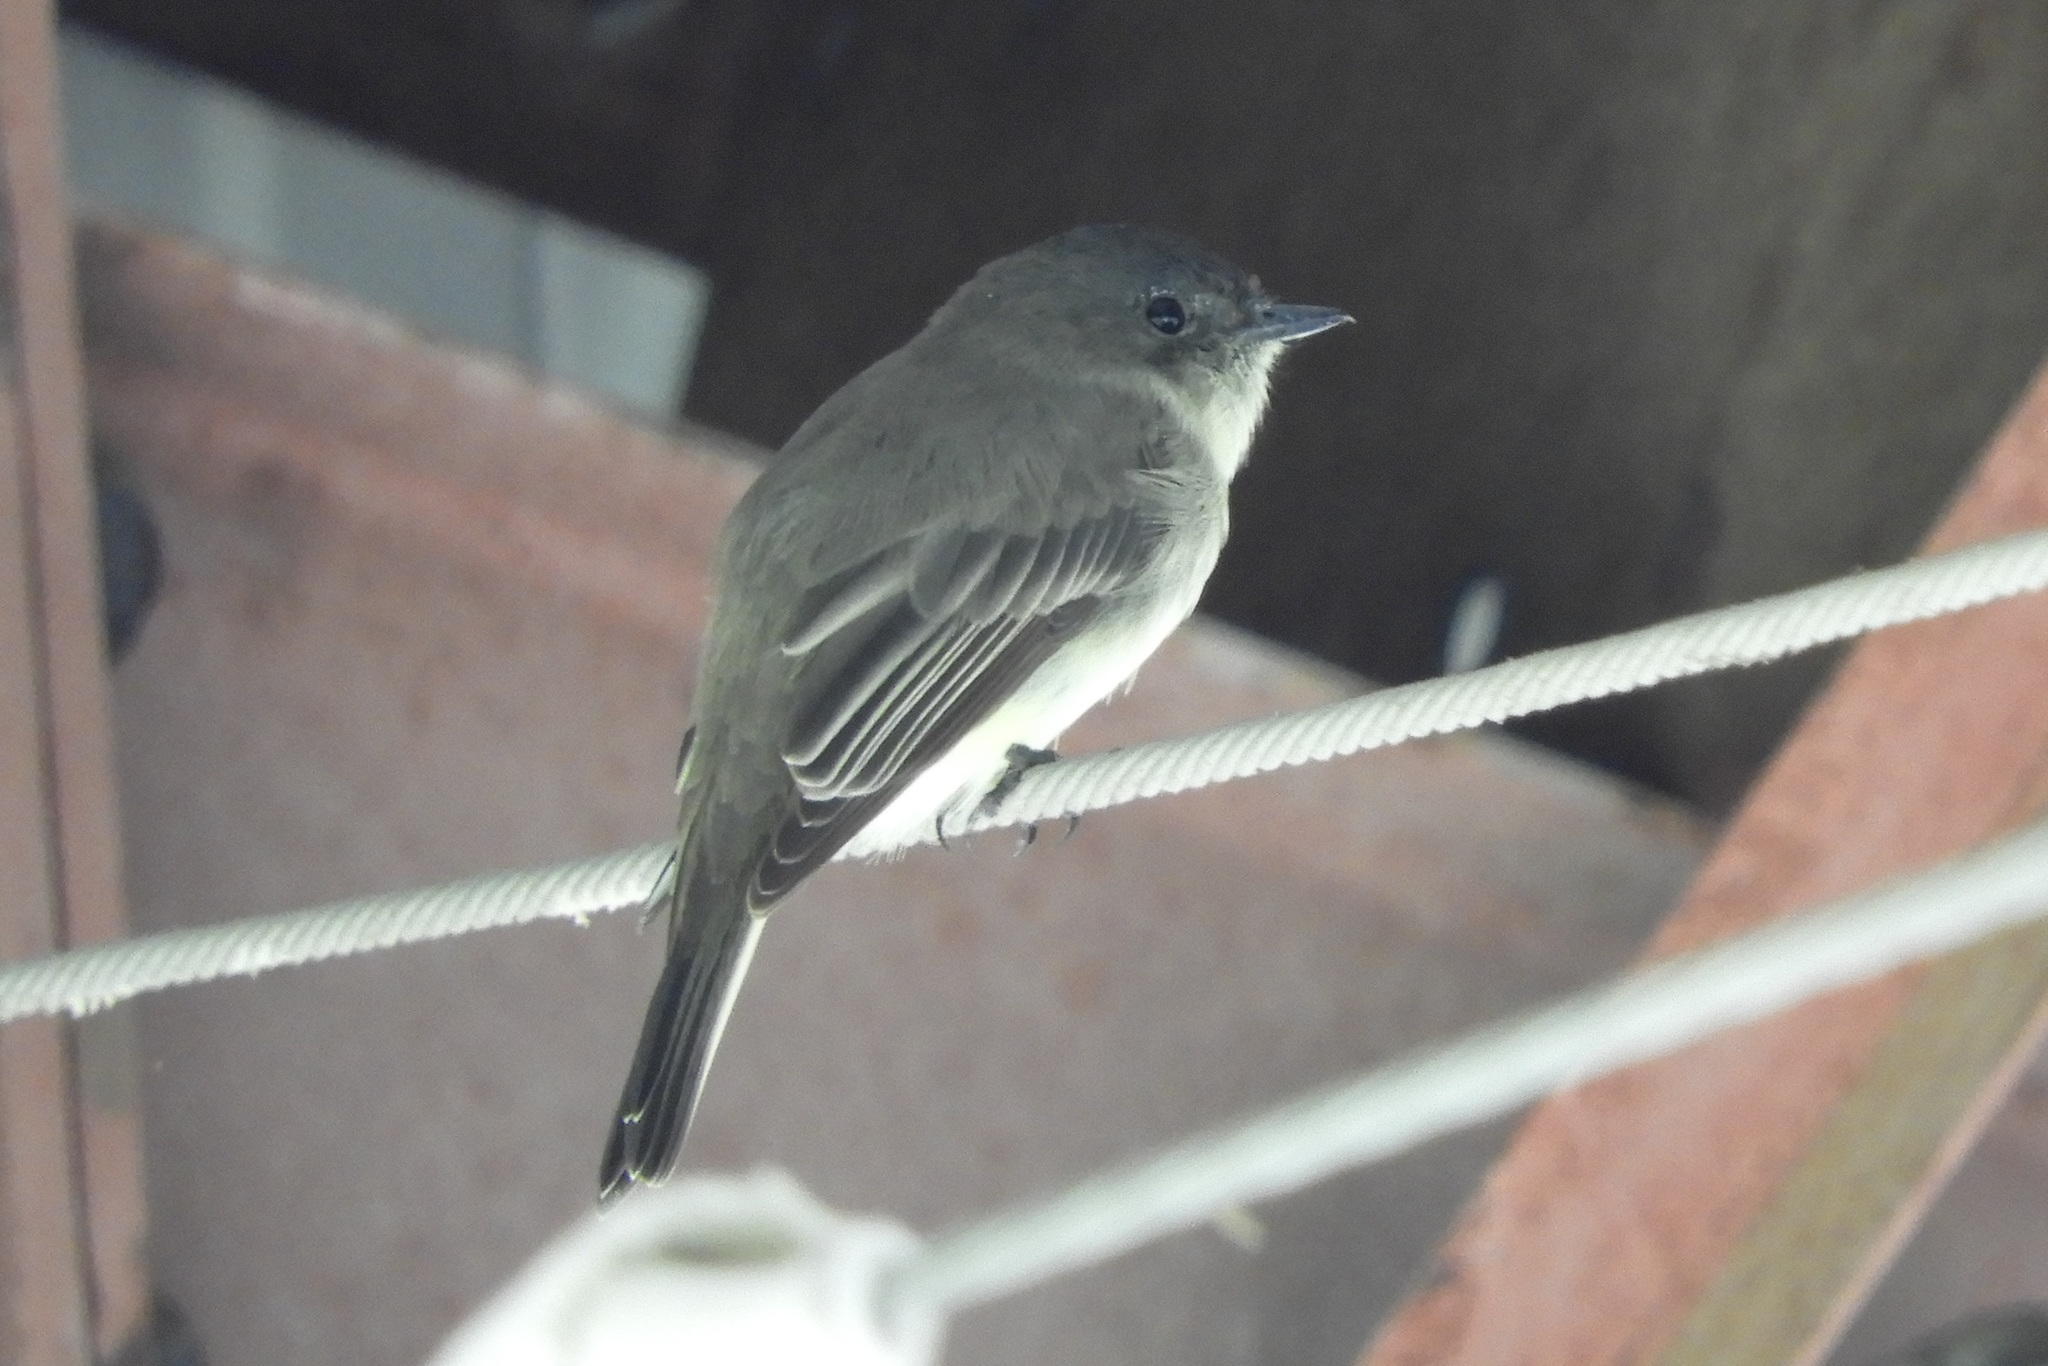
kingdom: Animalia
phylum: Chordata
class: Aves
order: Passeriformes
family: Tyrannidae
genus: Sayornis
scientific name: Sayornis phoebe
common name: Eastern phoebe
